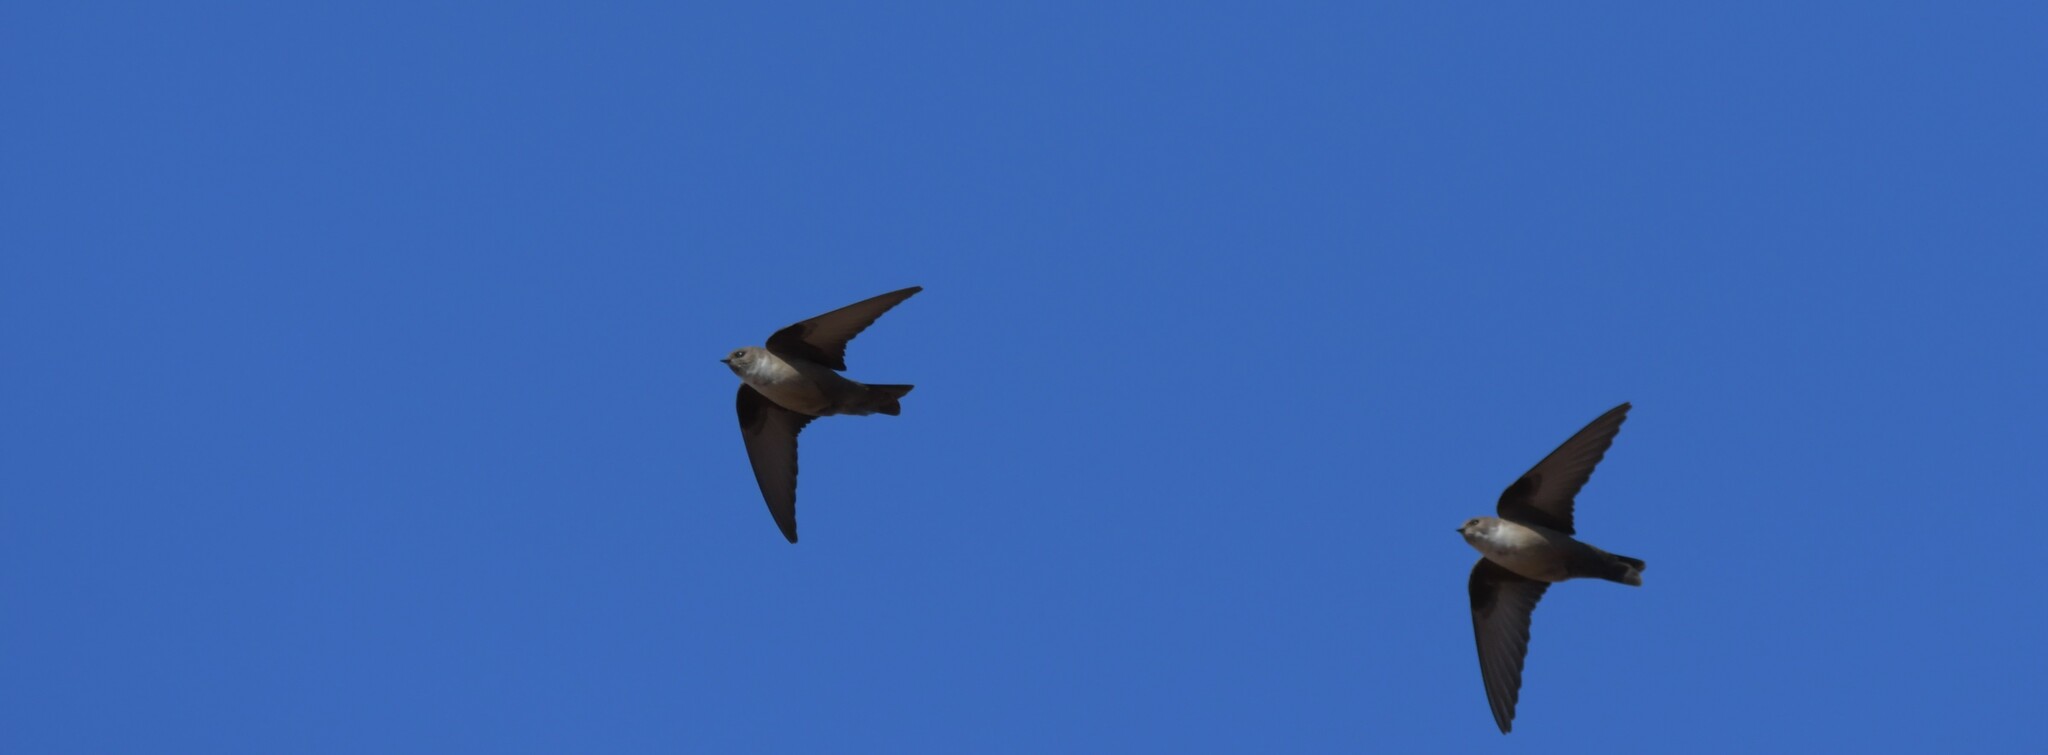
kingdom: Animalia
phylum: Chordata
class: Aves
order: Passeriformes
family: Hirundinidae
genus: Ptyonoprogne
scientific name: Ptyonoprogne rupestris
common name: Eurasian crag martin
